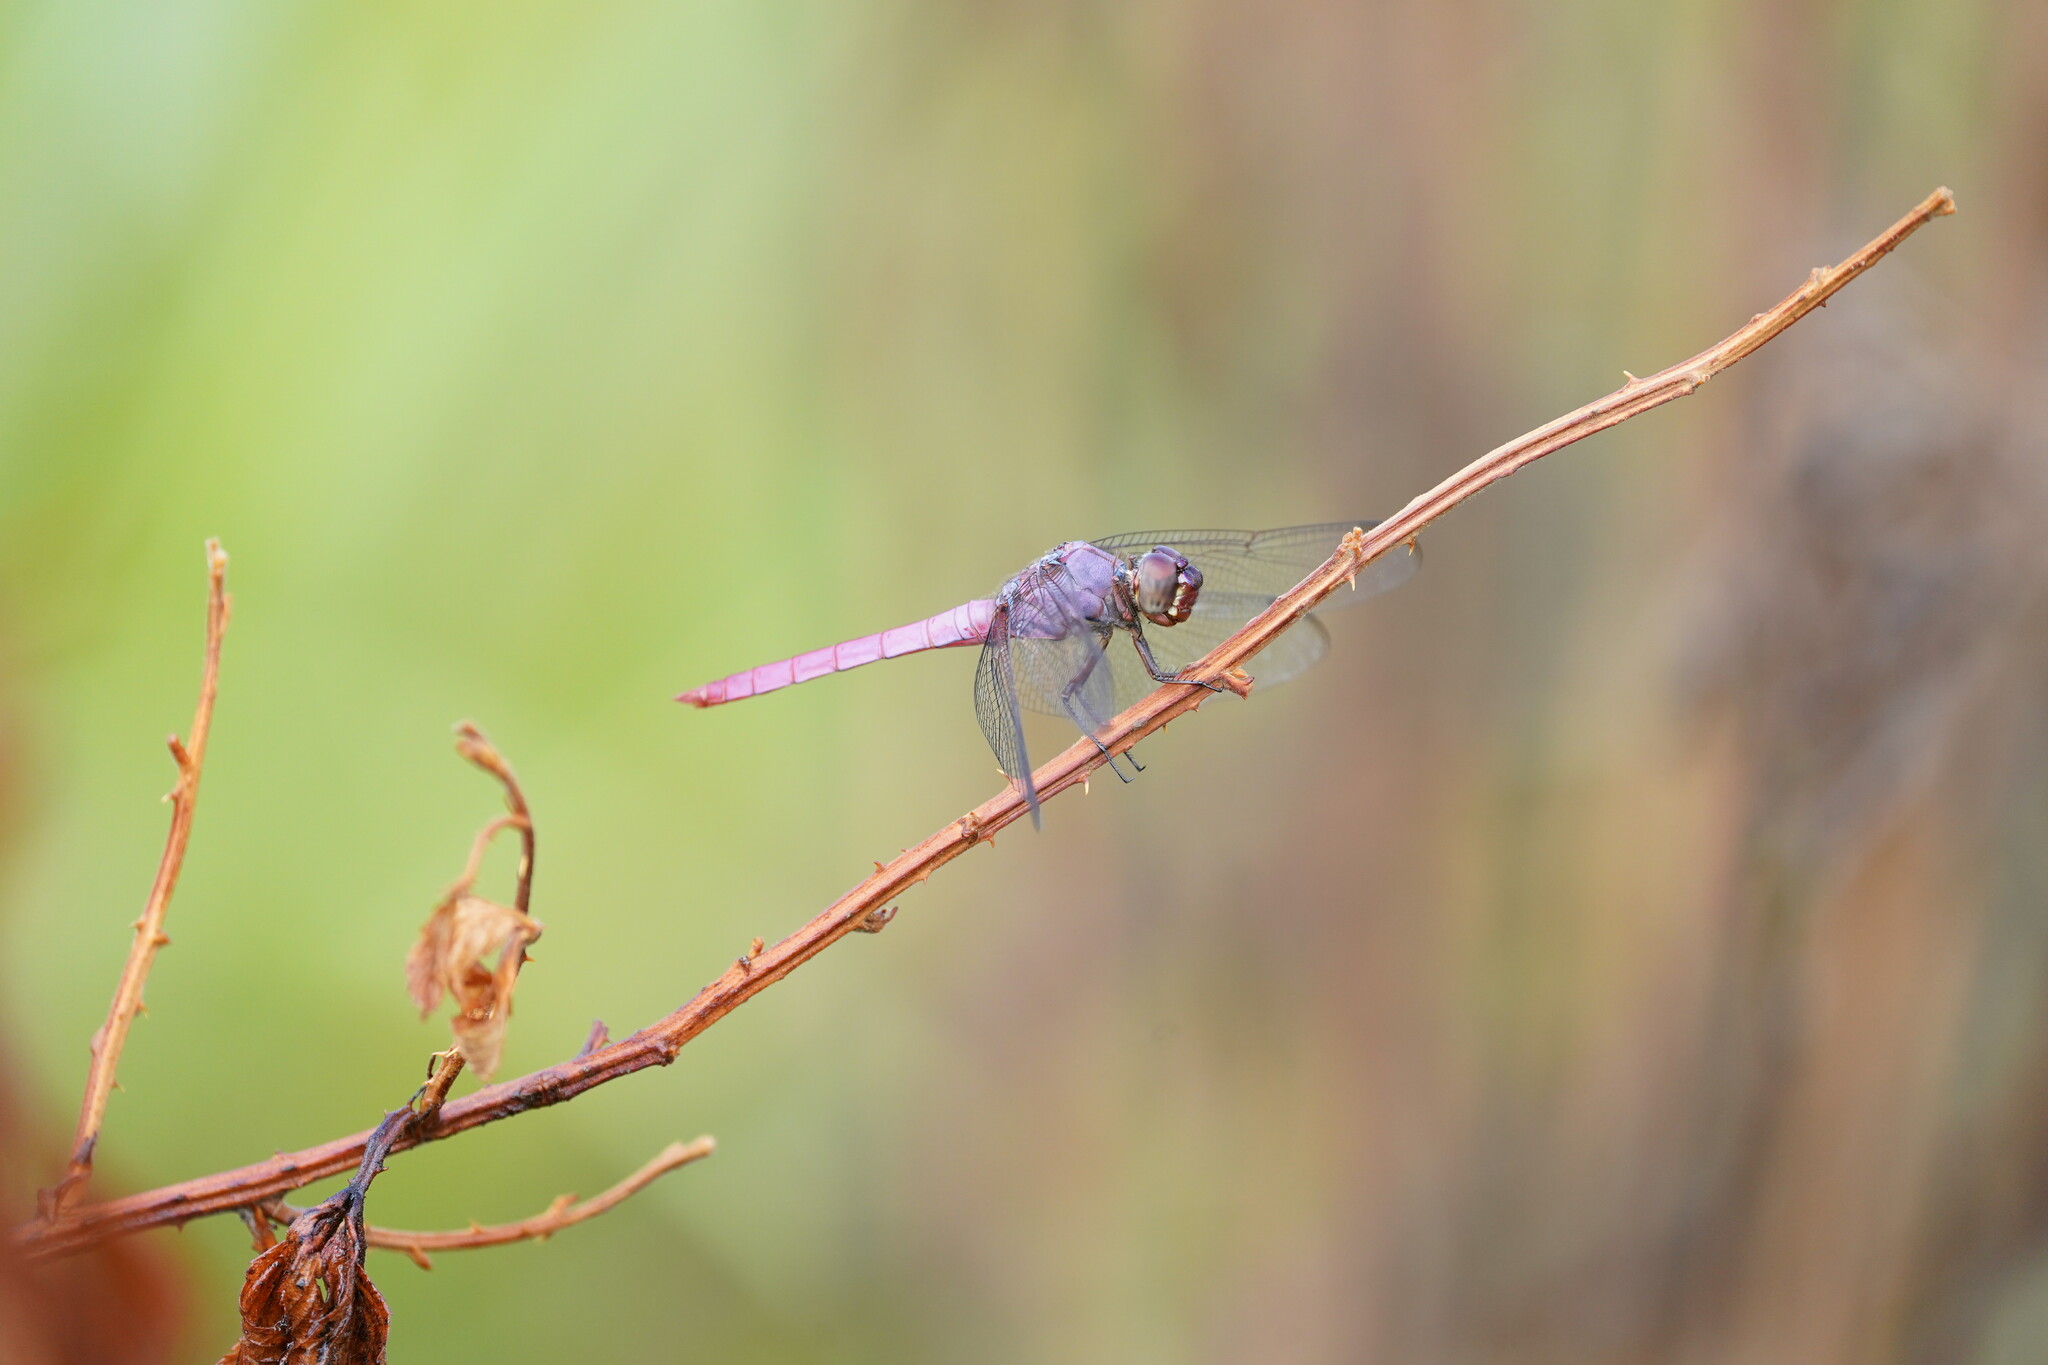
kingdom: Animalia
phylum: Arthropoda
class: Insecta
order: Odonata
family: Libellulidae
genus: Orthemis
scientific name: Orthemis ferruginea
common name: Roseate skimmer
